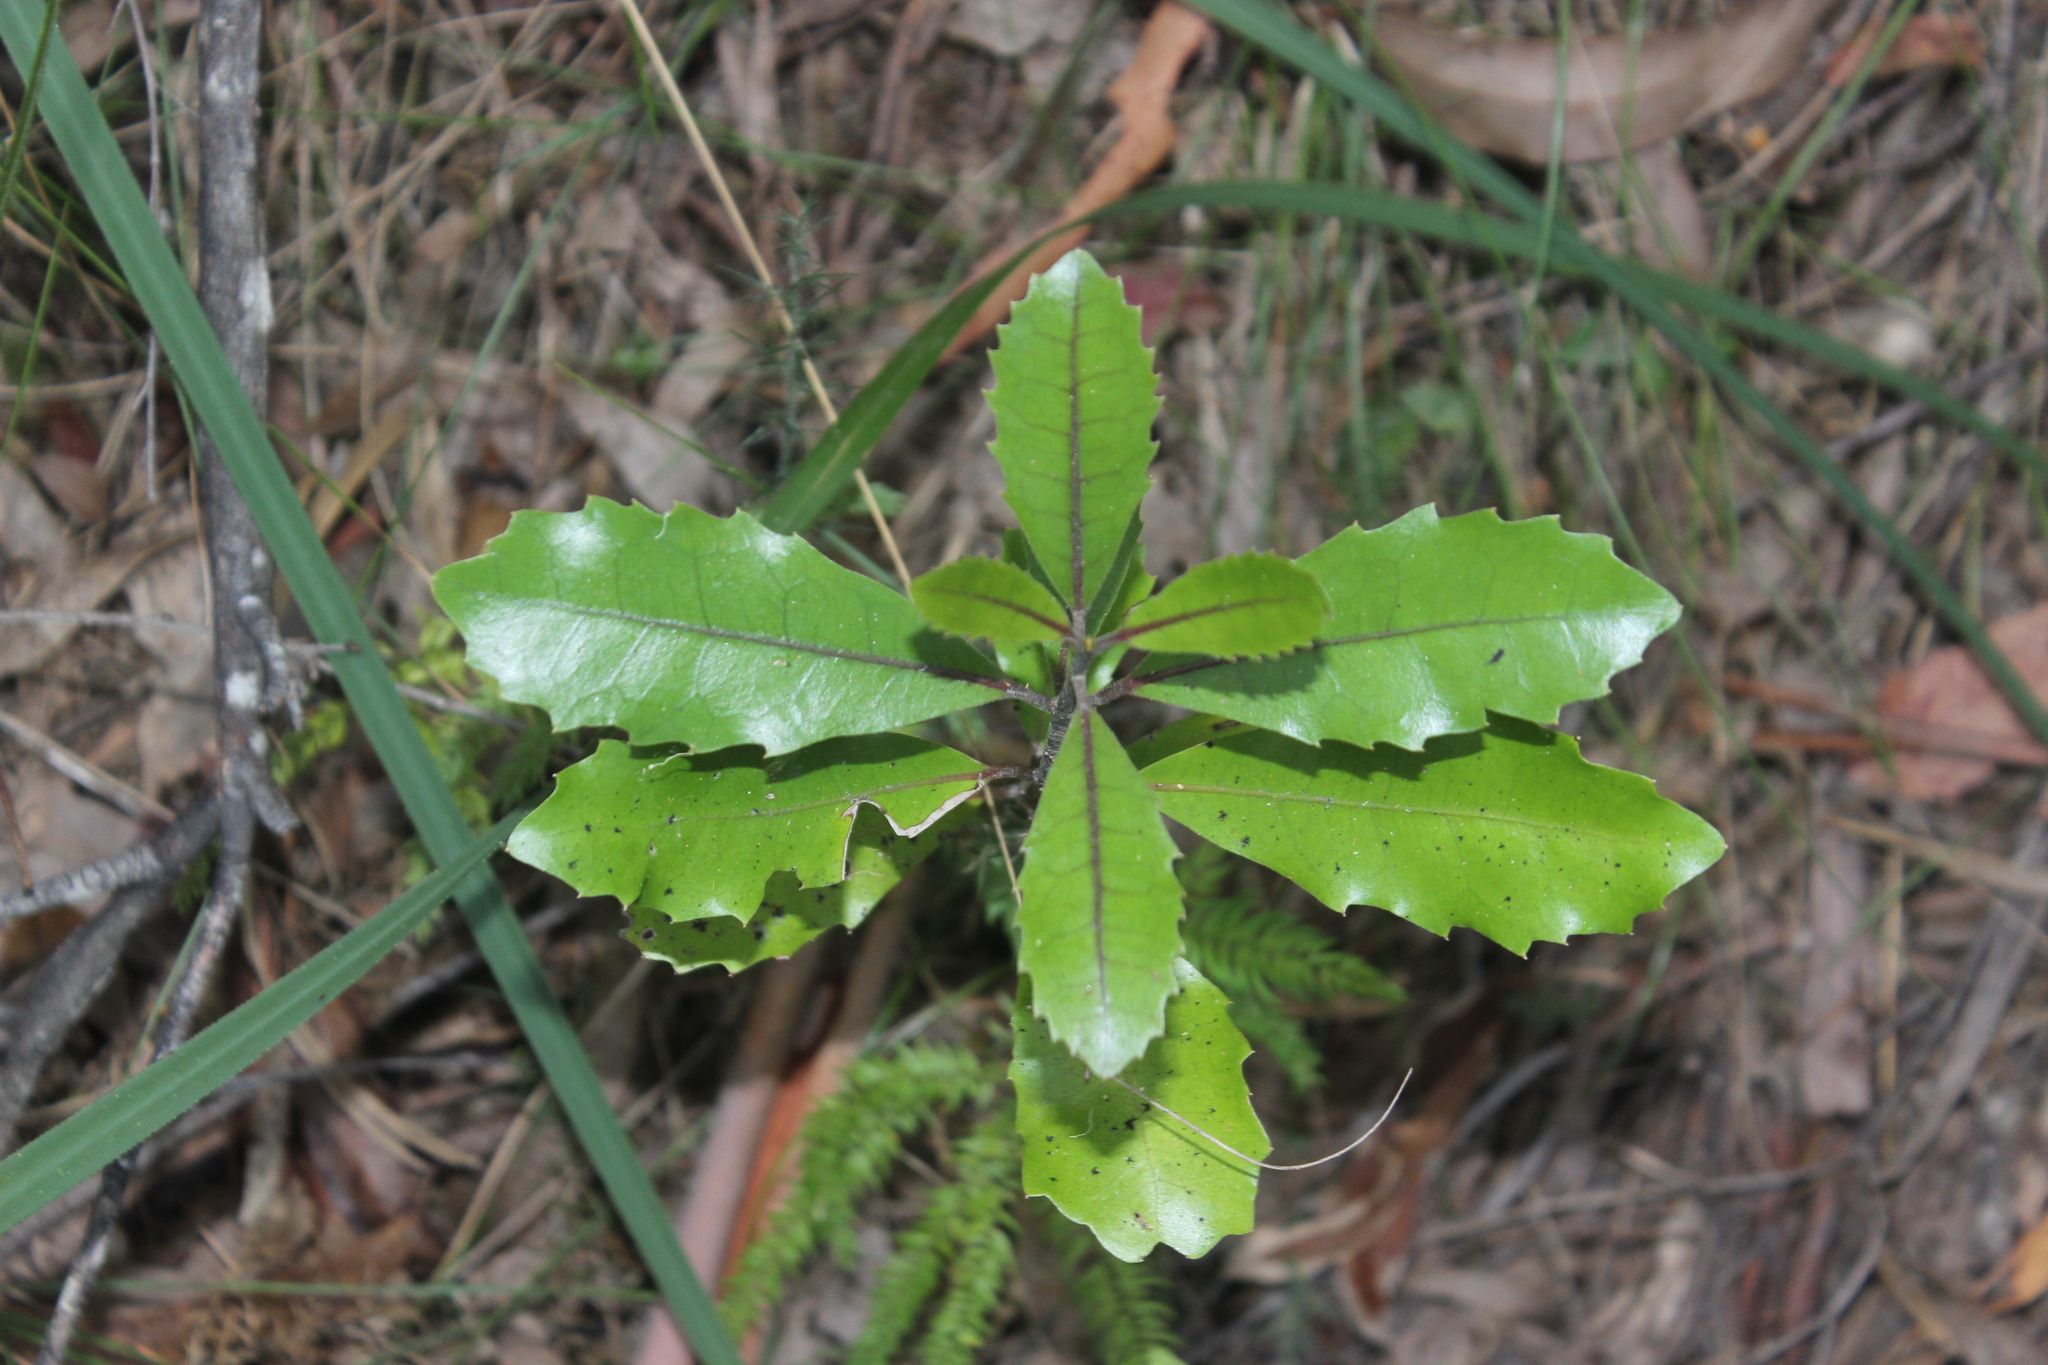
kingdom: Plantae
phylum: Tracheophyta
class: Magnoliopsida
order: Laurales
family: Monimiaceae
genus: Hedycarya
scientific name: Hedycarya arborea
